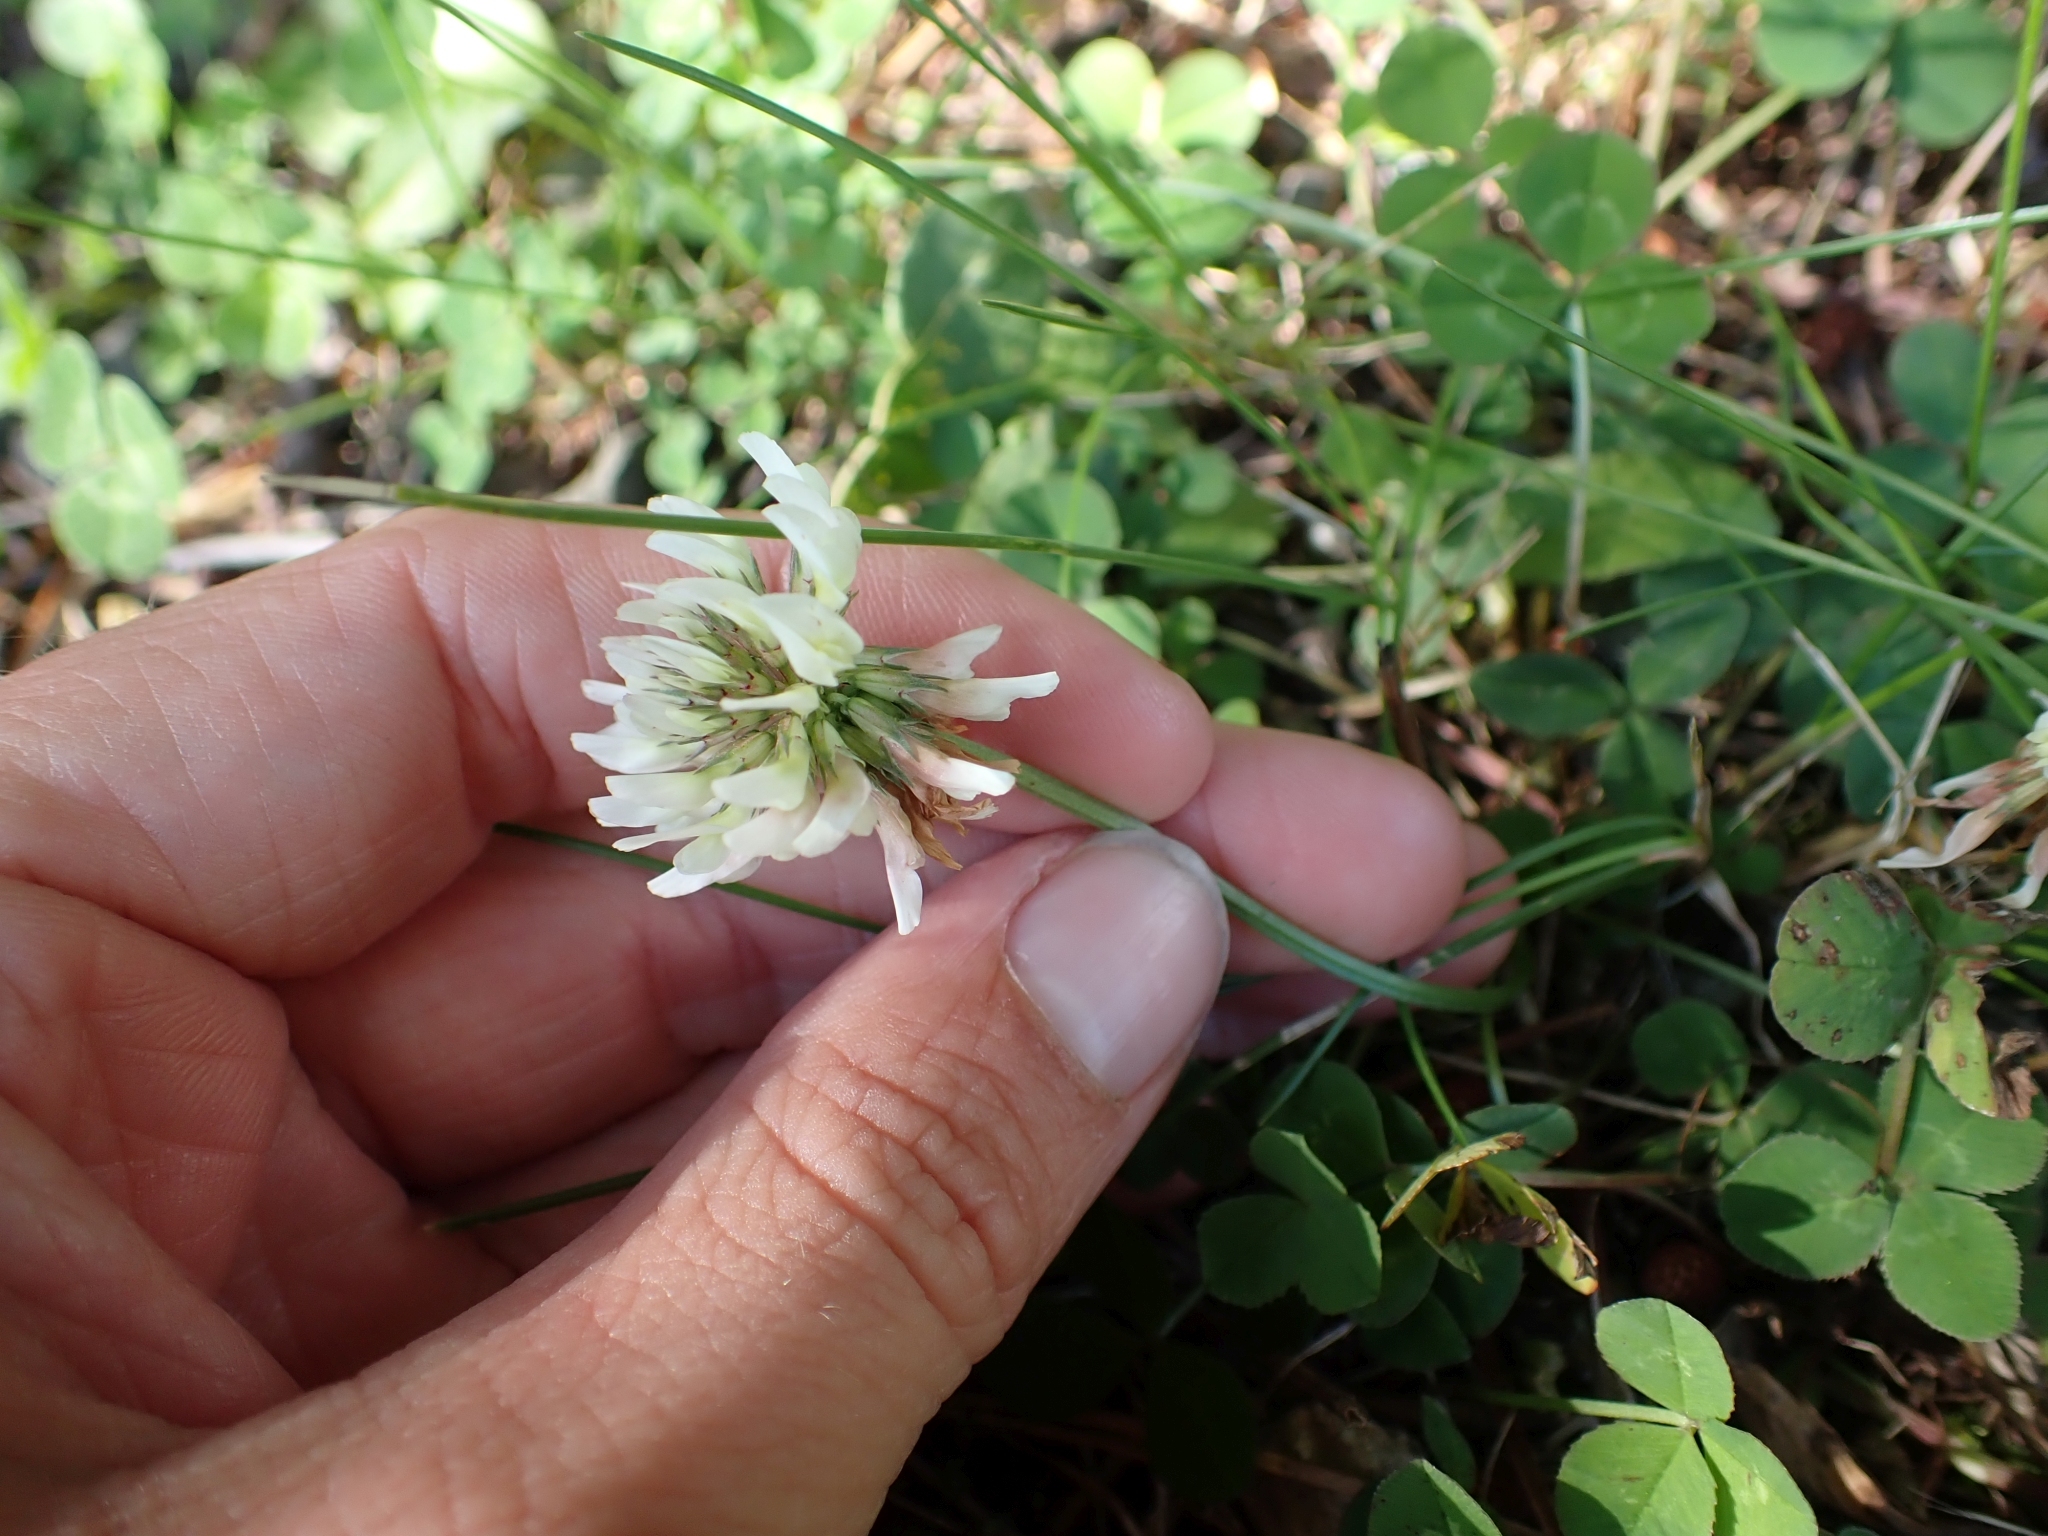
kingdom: Plantae
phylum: Tracheophyta
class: Magnoliopsida
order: Fabales
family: Fabaceae
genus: Trifolium
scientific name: Trifolium repens
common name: White clover
